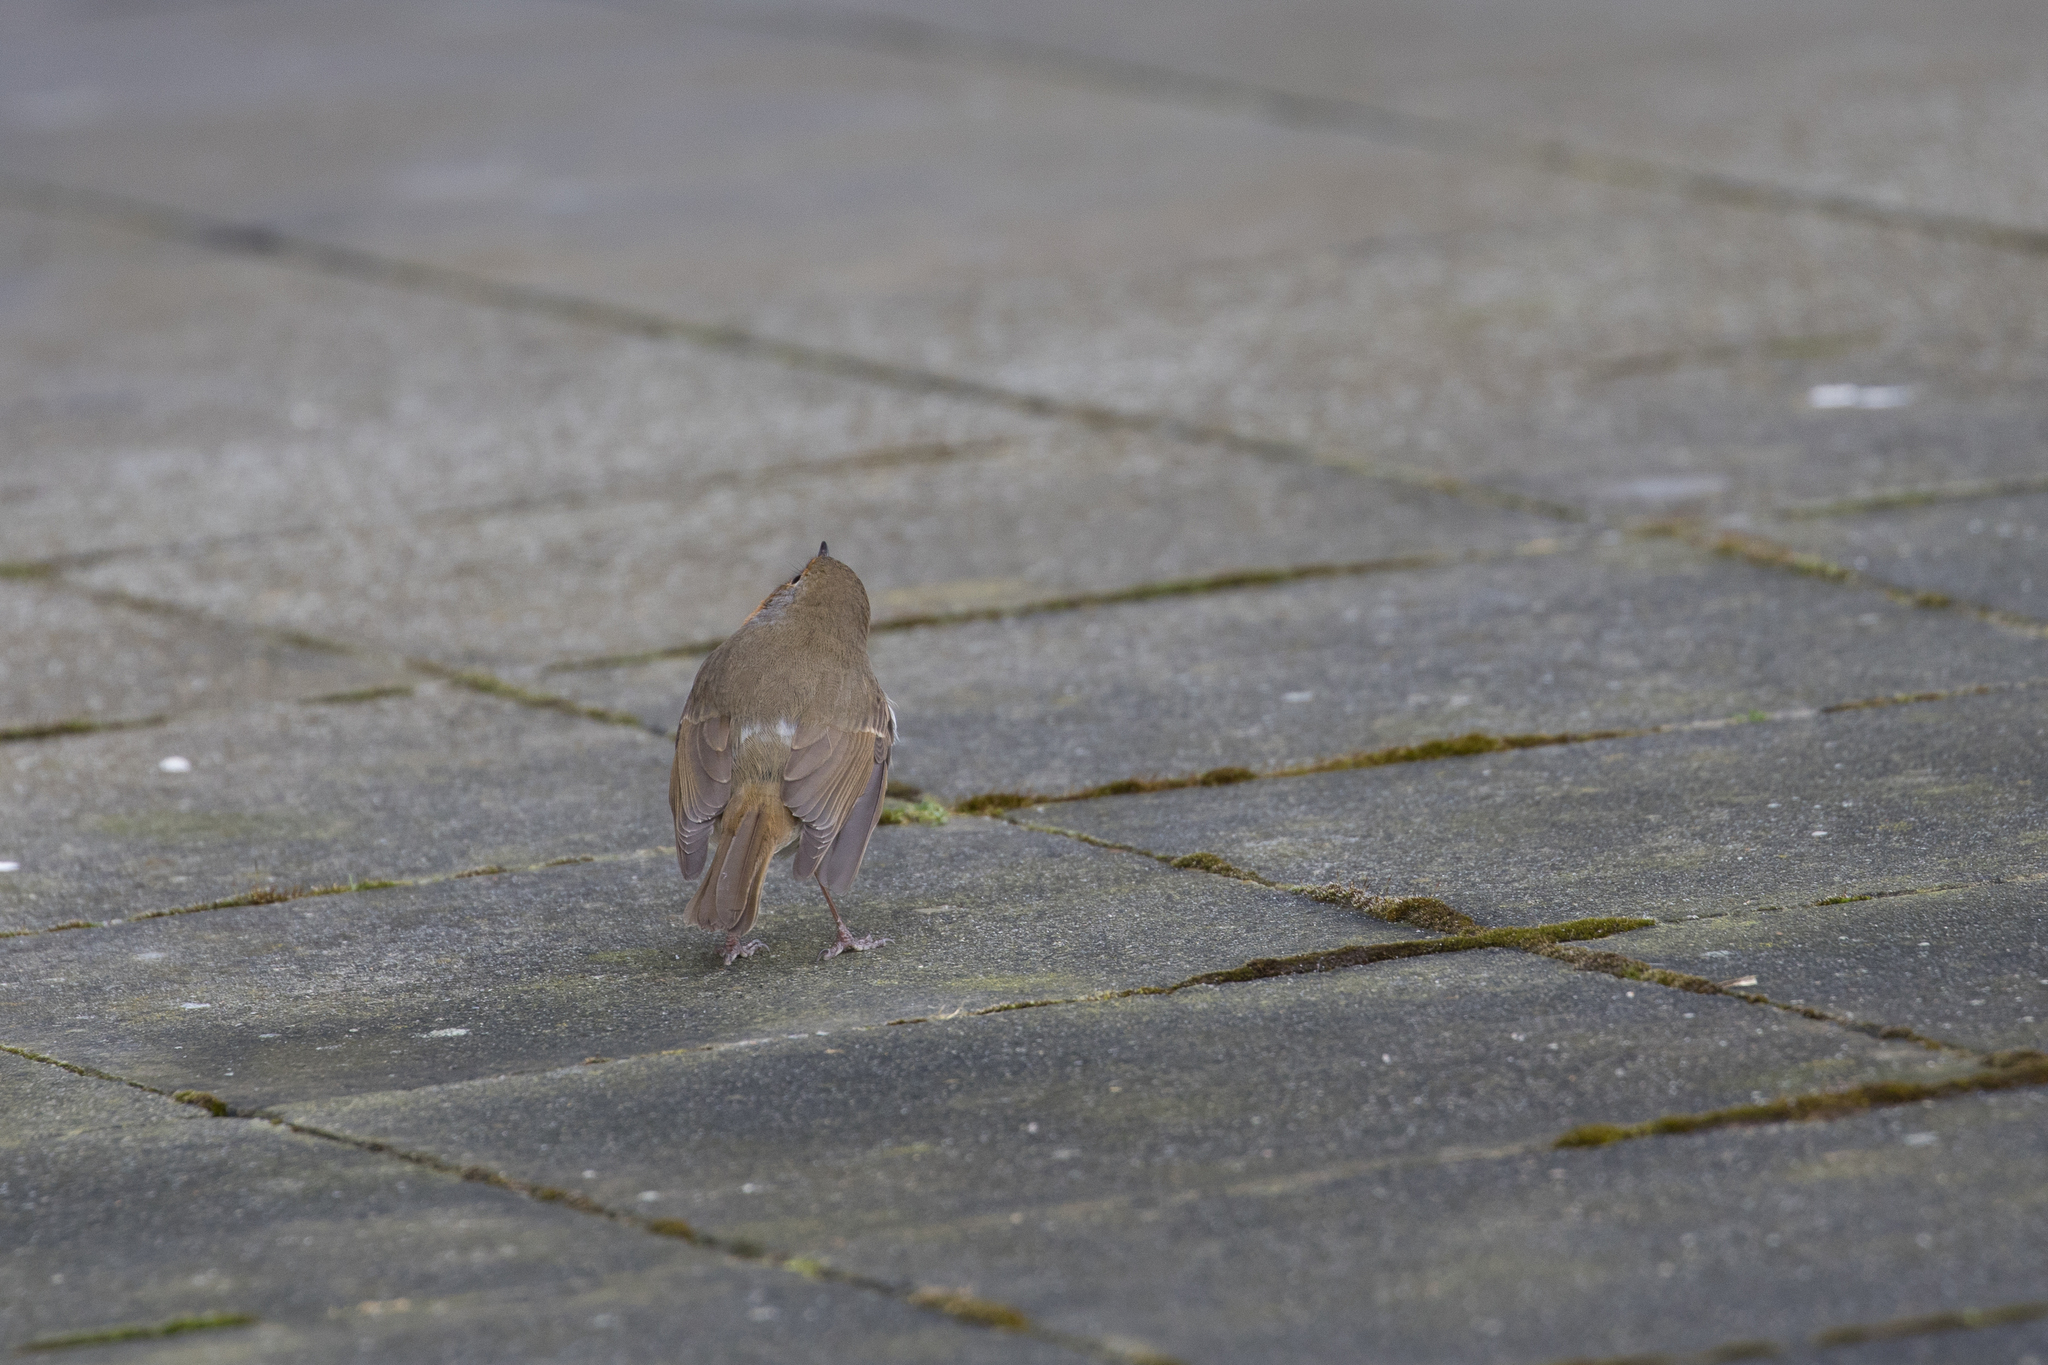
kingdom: Animalia
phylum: Chordata
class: Aves
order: Passeriformes
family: Muscicapidae
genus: Erithacus
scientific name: Erithacus rubecula
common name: European robin
